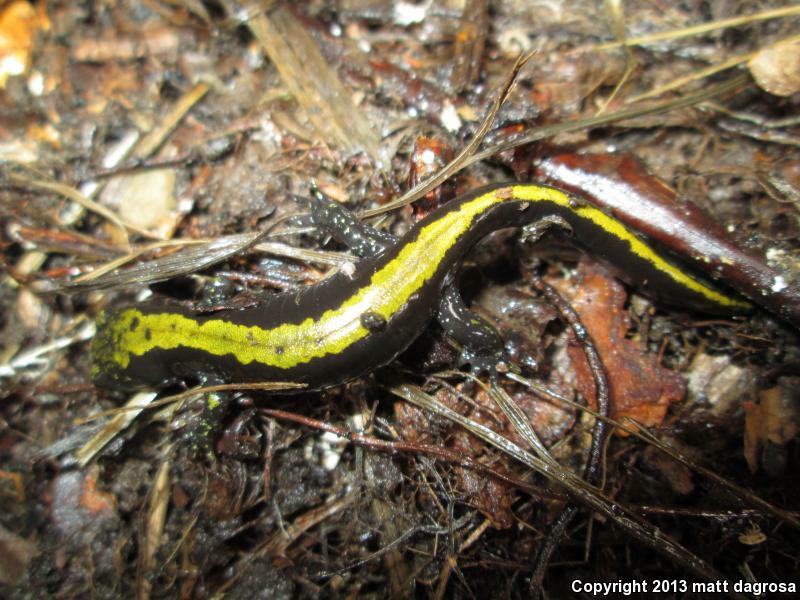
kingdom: Animalia
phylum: Chordata
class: Amphibia
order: Caudata
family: Ambystomatidae
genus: Ambystoma
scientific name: Ambystoma macrodactylum
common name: Long-toed salamander
